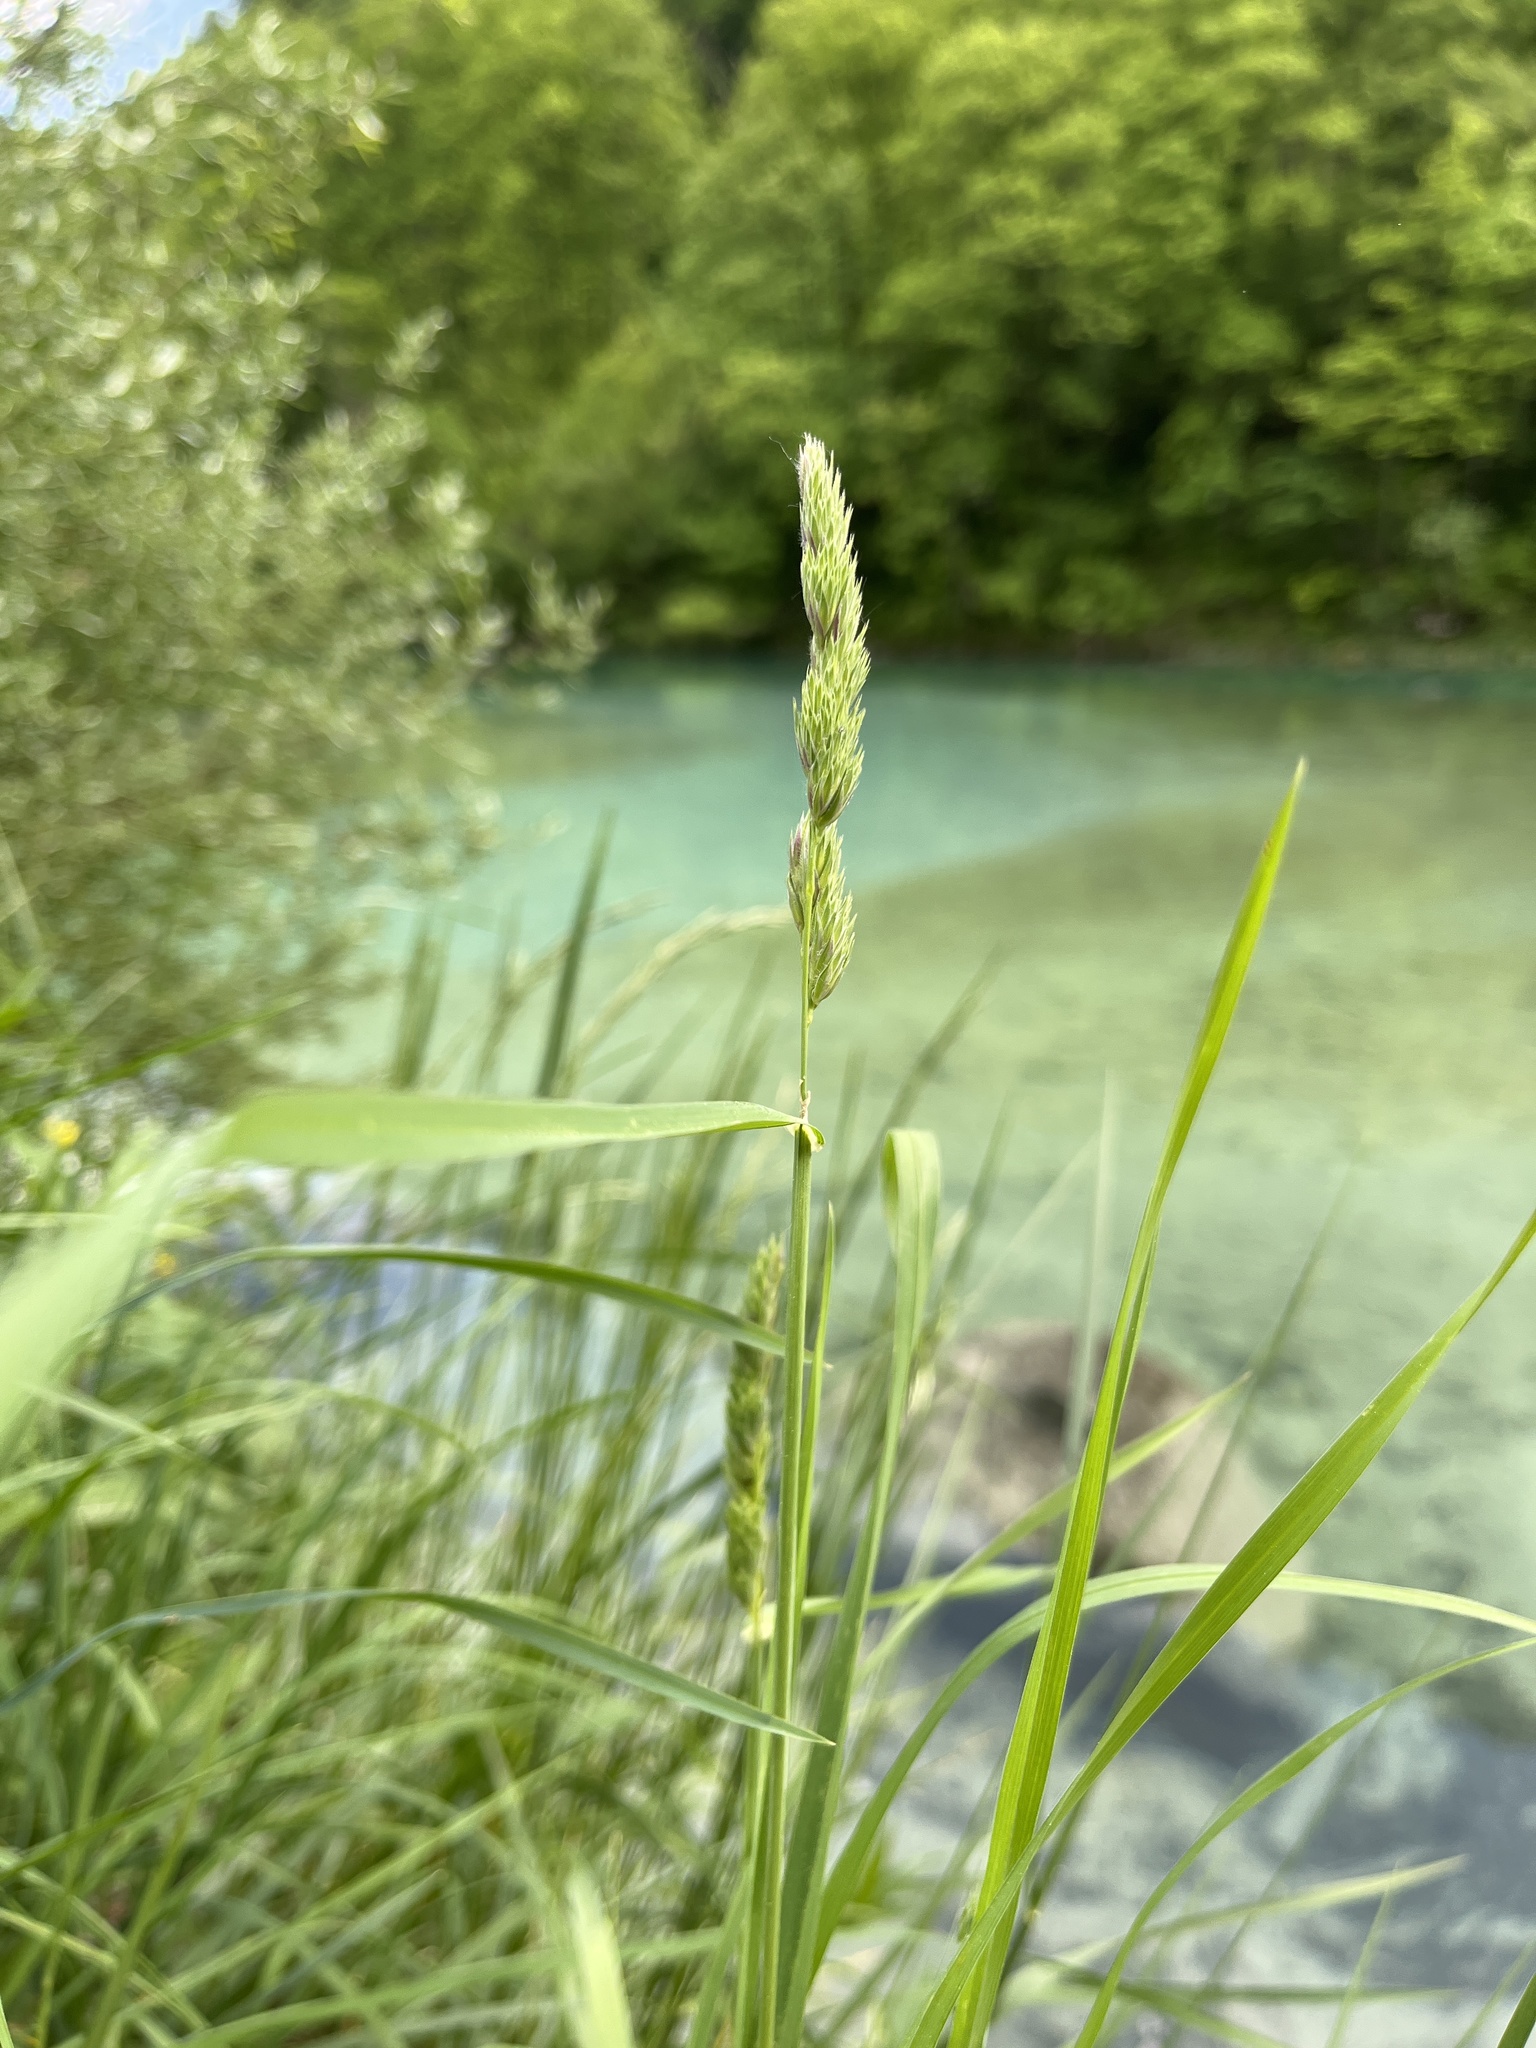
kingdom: Plantae
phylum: Tracheophyta
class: Liliopsida
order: Poales
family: Poaceae
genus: Dactylis
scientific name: Dactylis glomerata
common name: Orchardgrass
